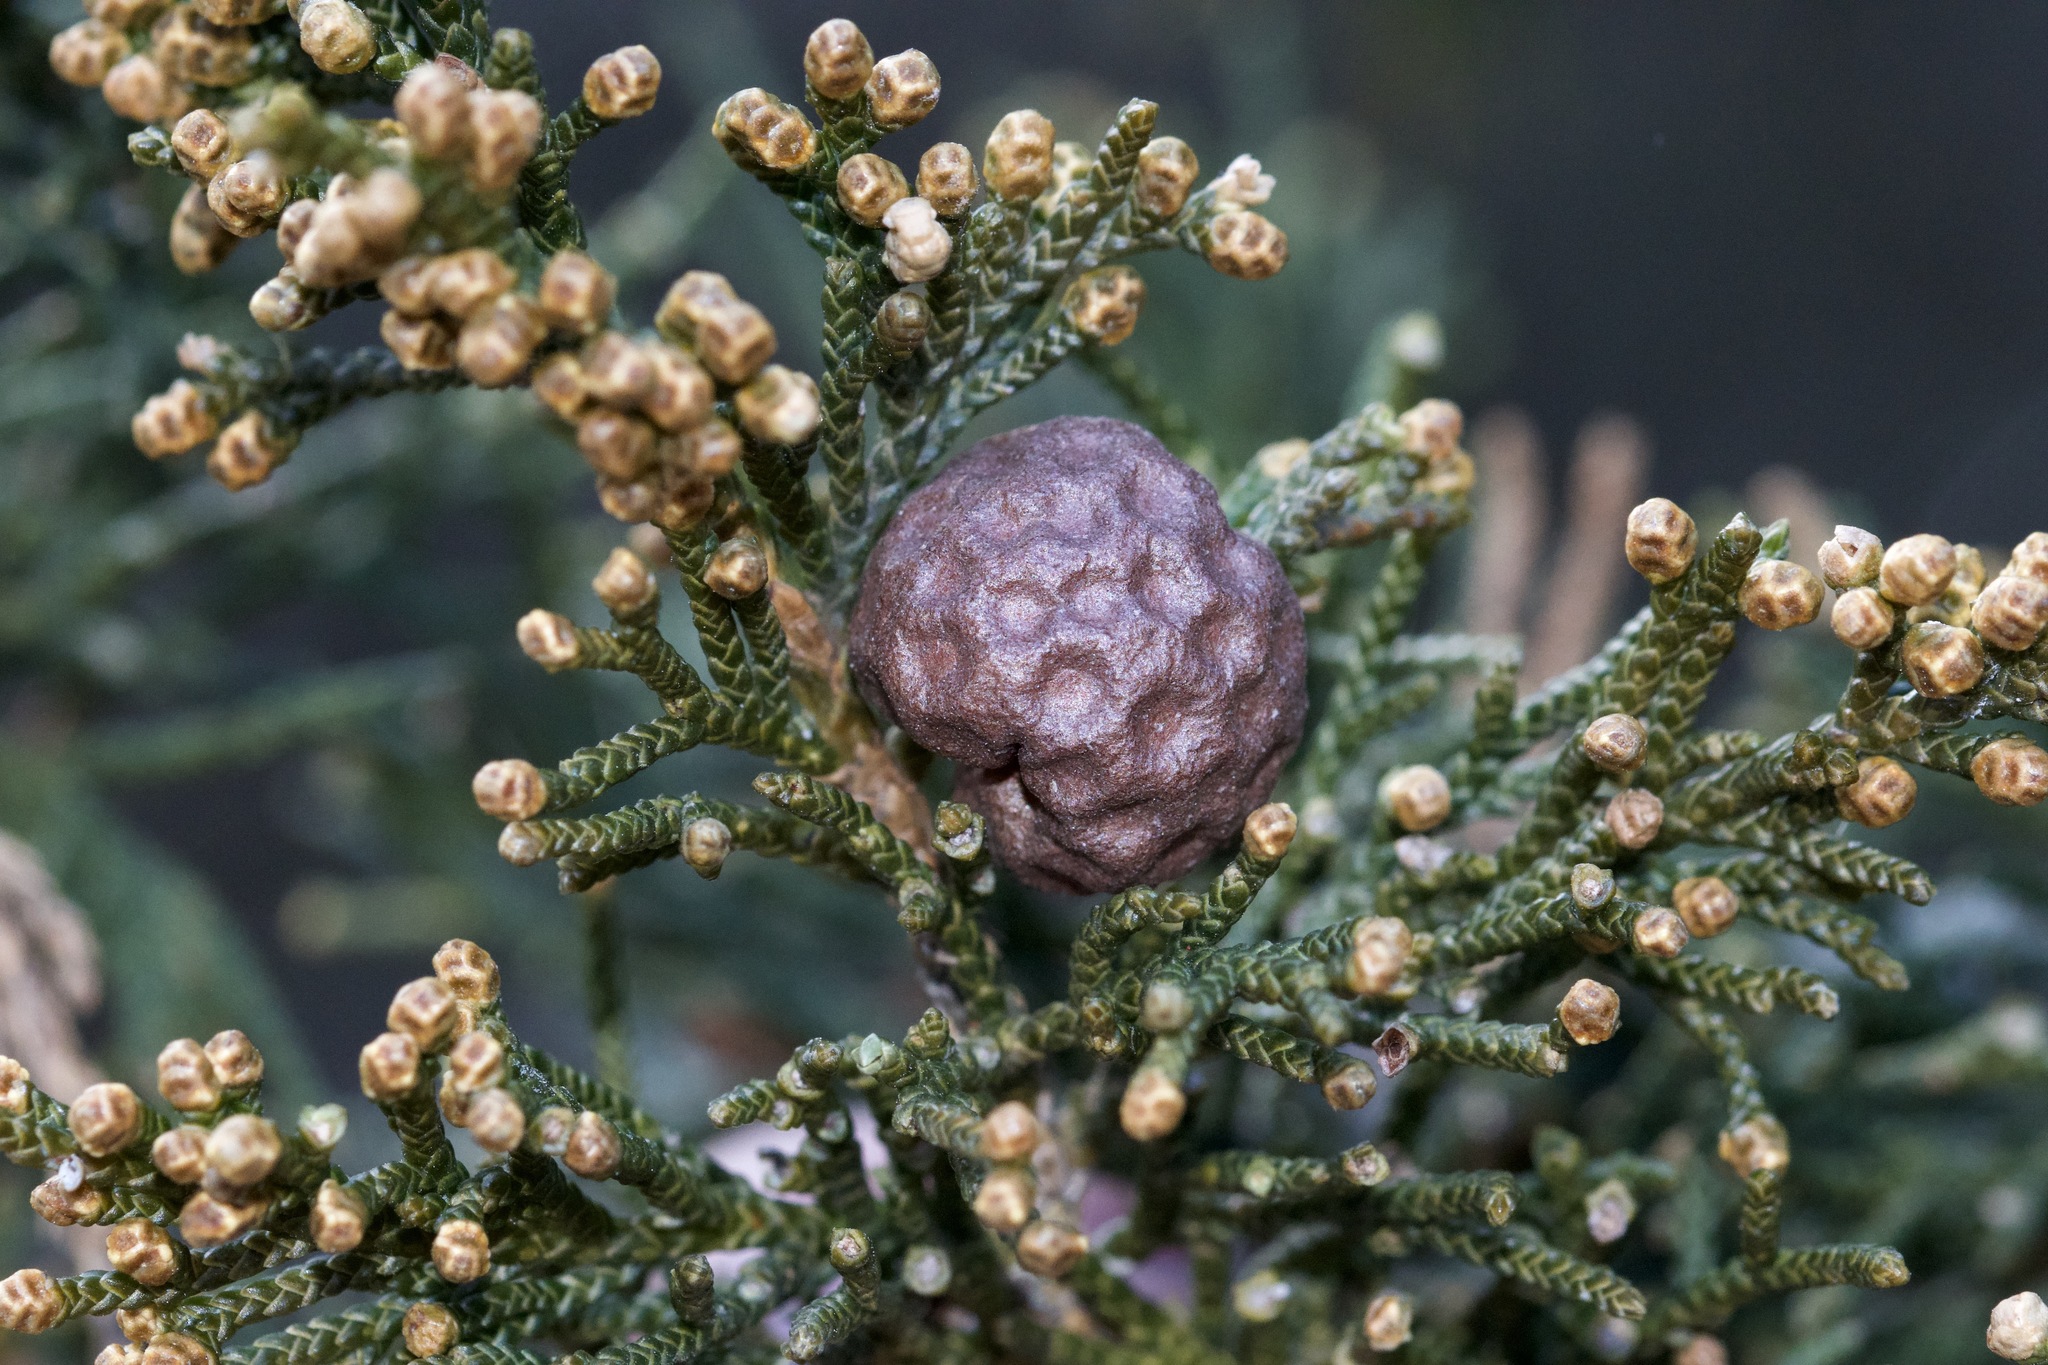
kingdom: Fungi
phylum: Basidiomycota
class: Pucciniomycetes
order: Pucciniales
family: Gymnosporangiaceae
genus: Gymnosporangium
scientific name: Gymnosporangium juniperi-virginianae
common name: Juniper-apple rust
